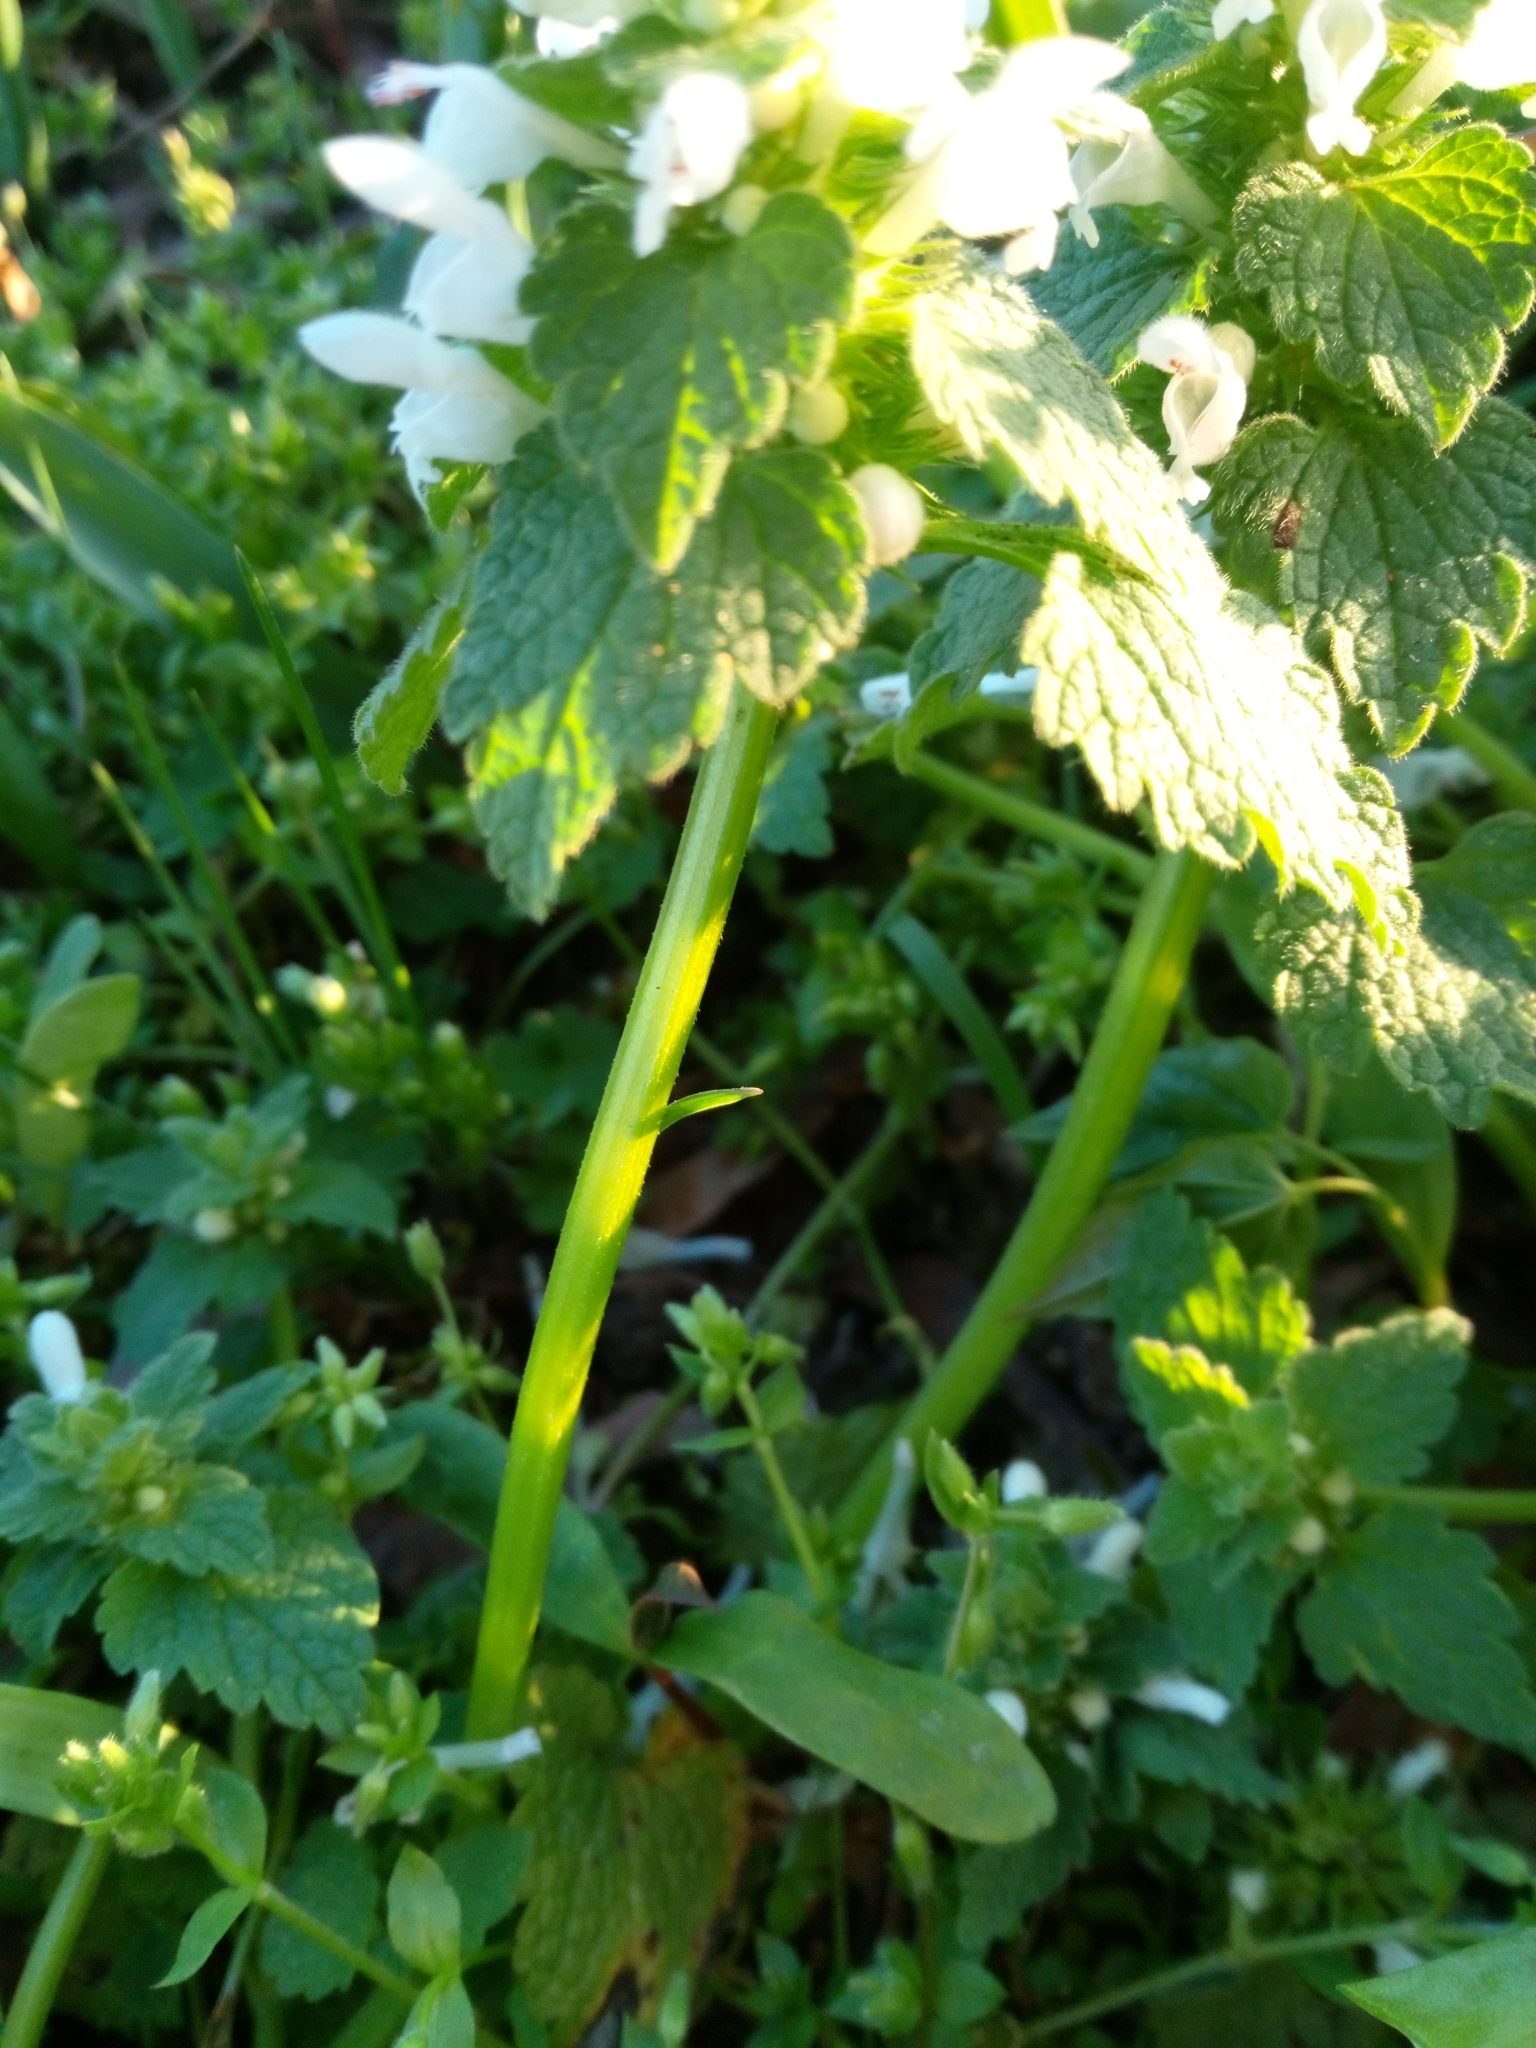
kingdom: Plantae
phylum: Tracheophyta
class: Magnoliopsida
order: Lamiales
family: Lamiaceae
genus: Lamium
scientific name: Lamium purpureum
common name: Red dead-nettle
